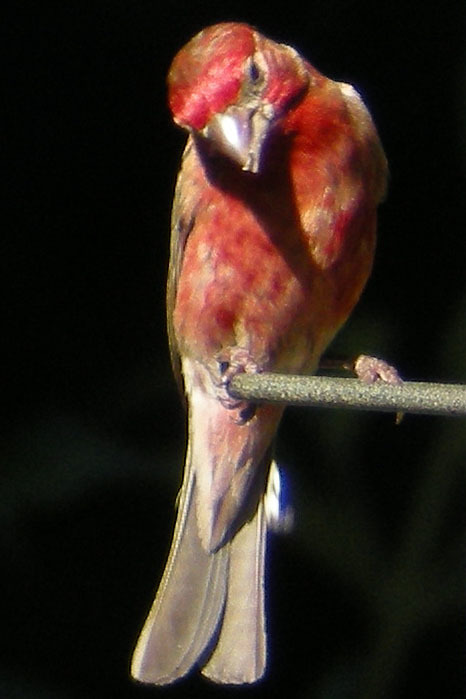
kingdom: Animalia
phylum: Chordata
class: Aves
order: Passeriformes
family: Fringillidae
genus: Haemorhous
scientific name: Haemorhous mexicanus
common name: House finch
